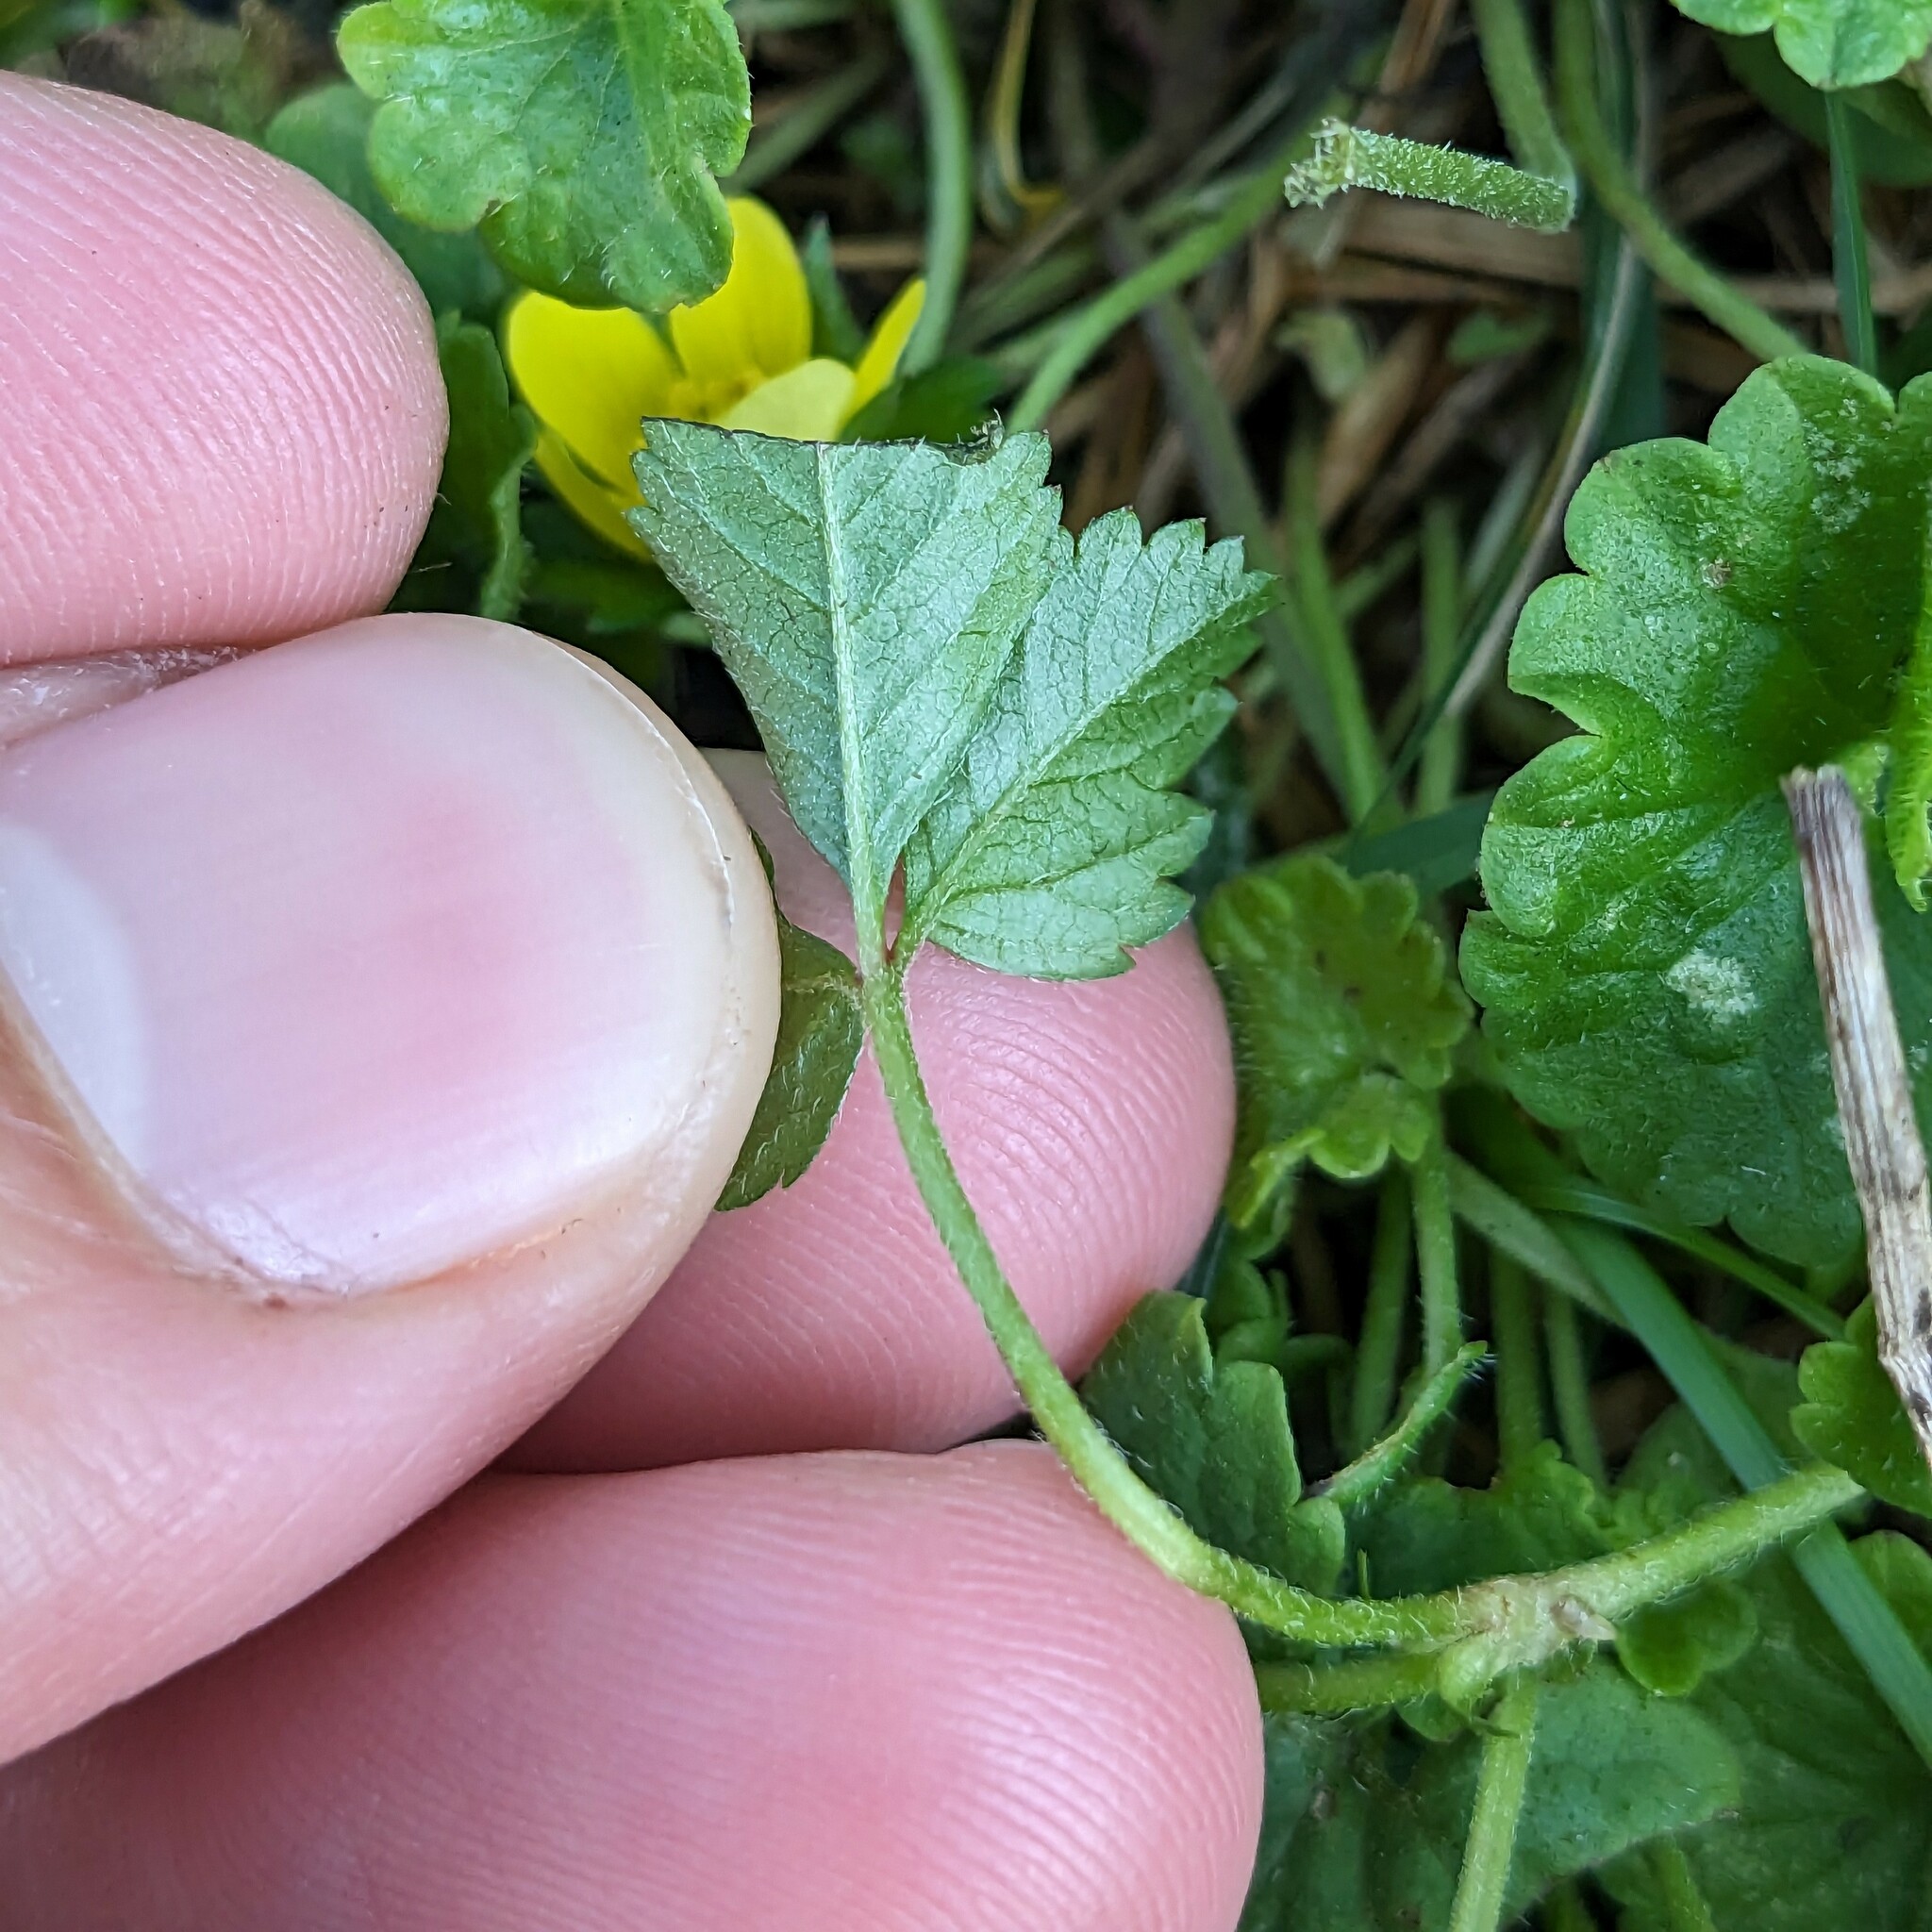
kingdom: Plantae
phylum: Tracheophyta
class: Magnoliopsida
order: Rosales
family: Rosaceae
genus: Potentilla
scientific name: Potentilla indica
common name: Yellow-flowered strawberry
